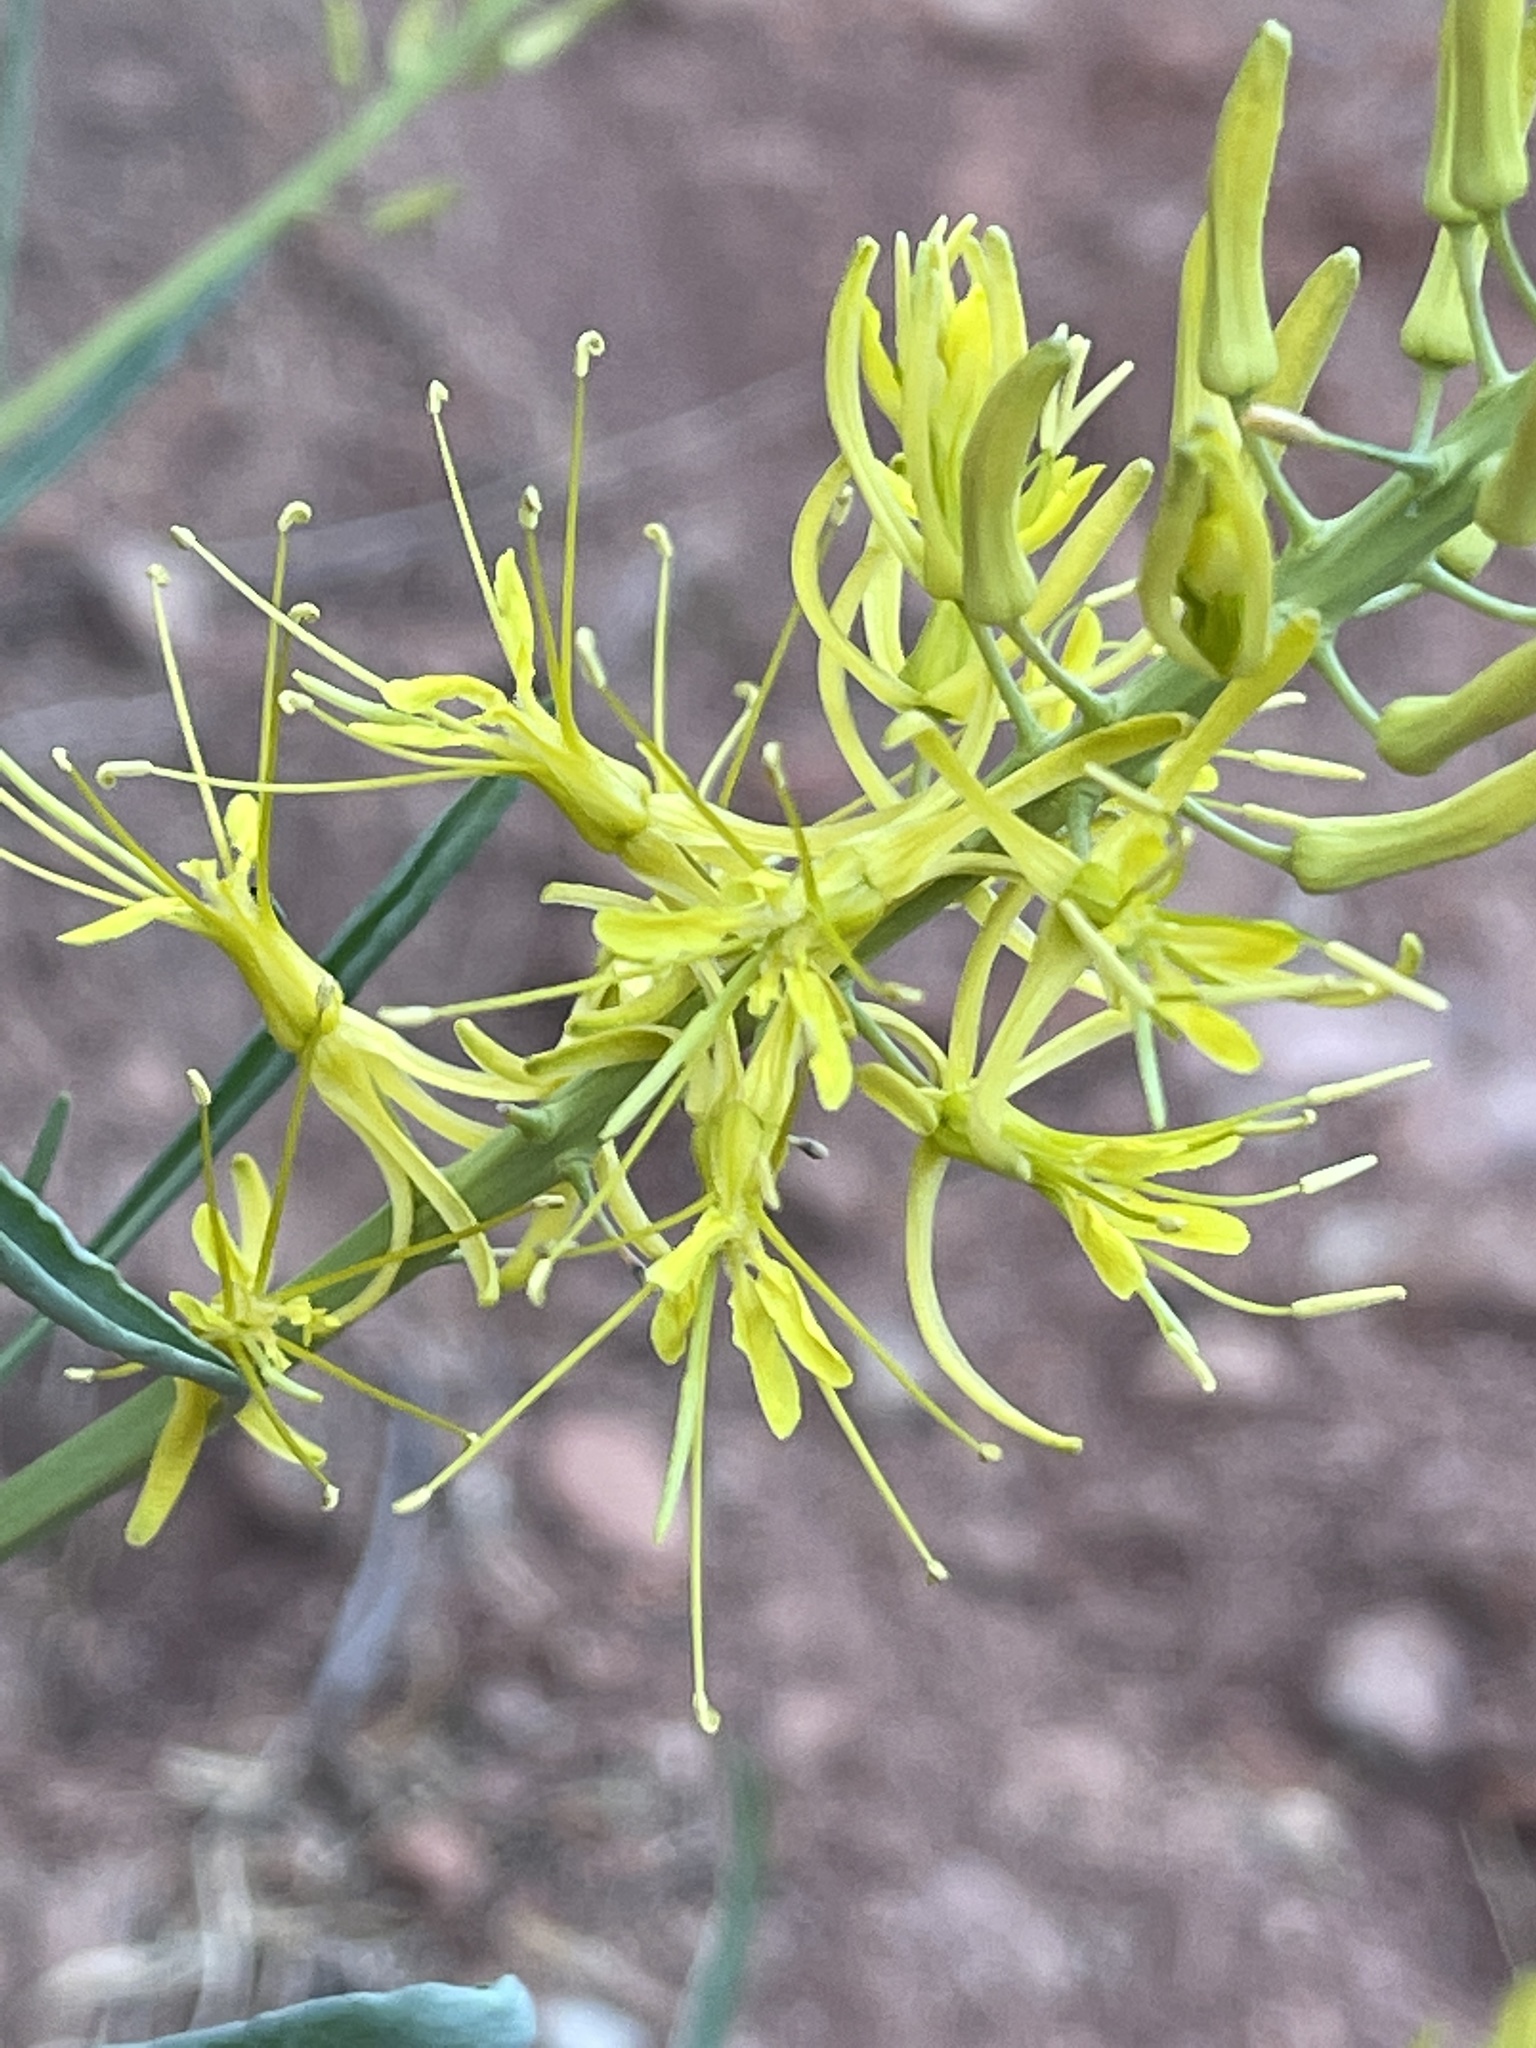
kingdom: Plantae
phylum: Tracheophyta
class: Magnoliopsida
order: Brassicales
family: Brassicaceae
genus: Stanleya
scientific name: Stanleya pinnata
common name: Prince's-plume
